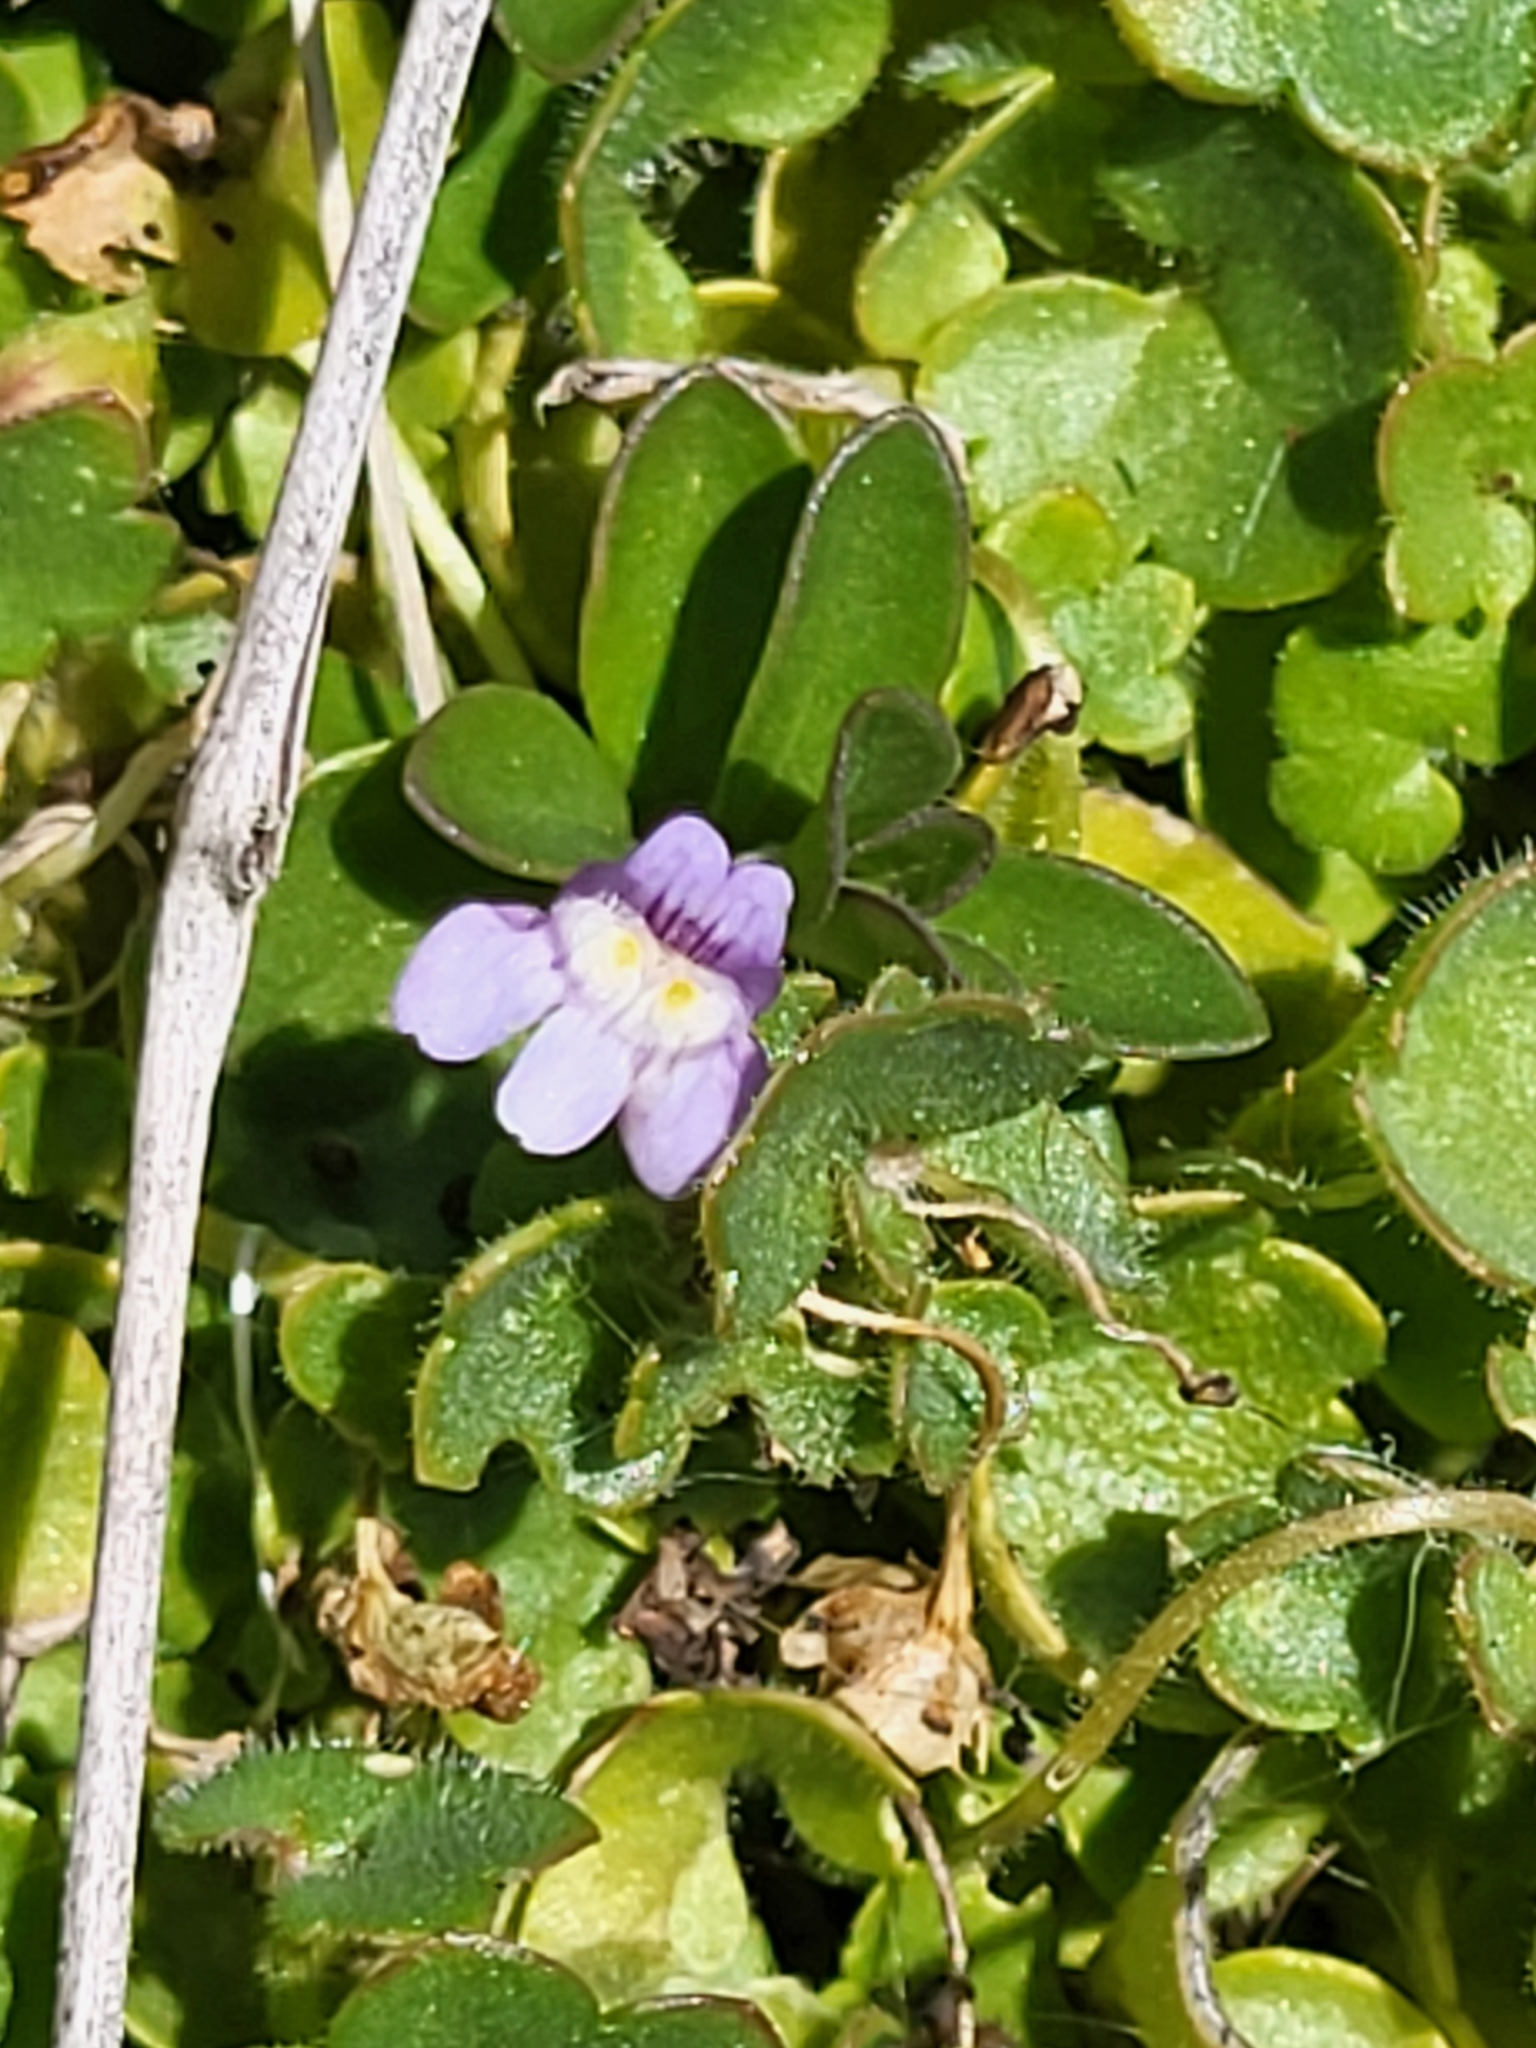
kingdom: Plantae
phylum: Tracheophyta
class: Magnoliopsida
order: Lamiales
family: Plantaginaceae
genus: Cymbalaria
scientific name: Cymbalaria muralis
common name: Ivy-leaved toadflax
